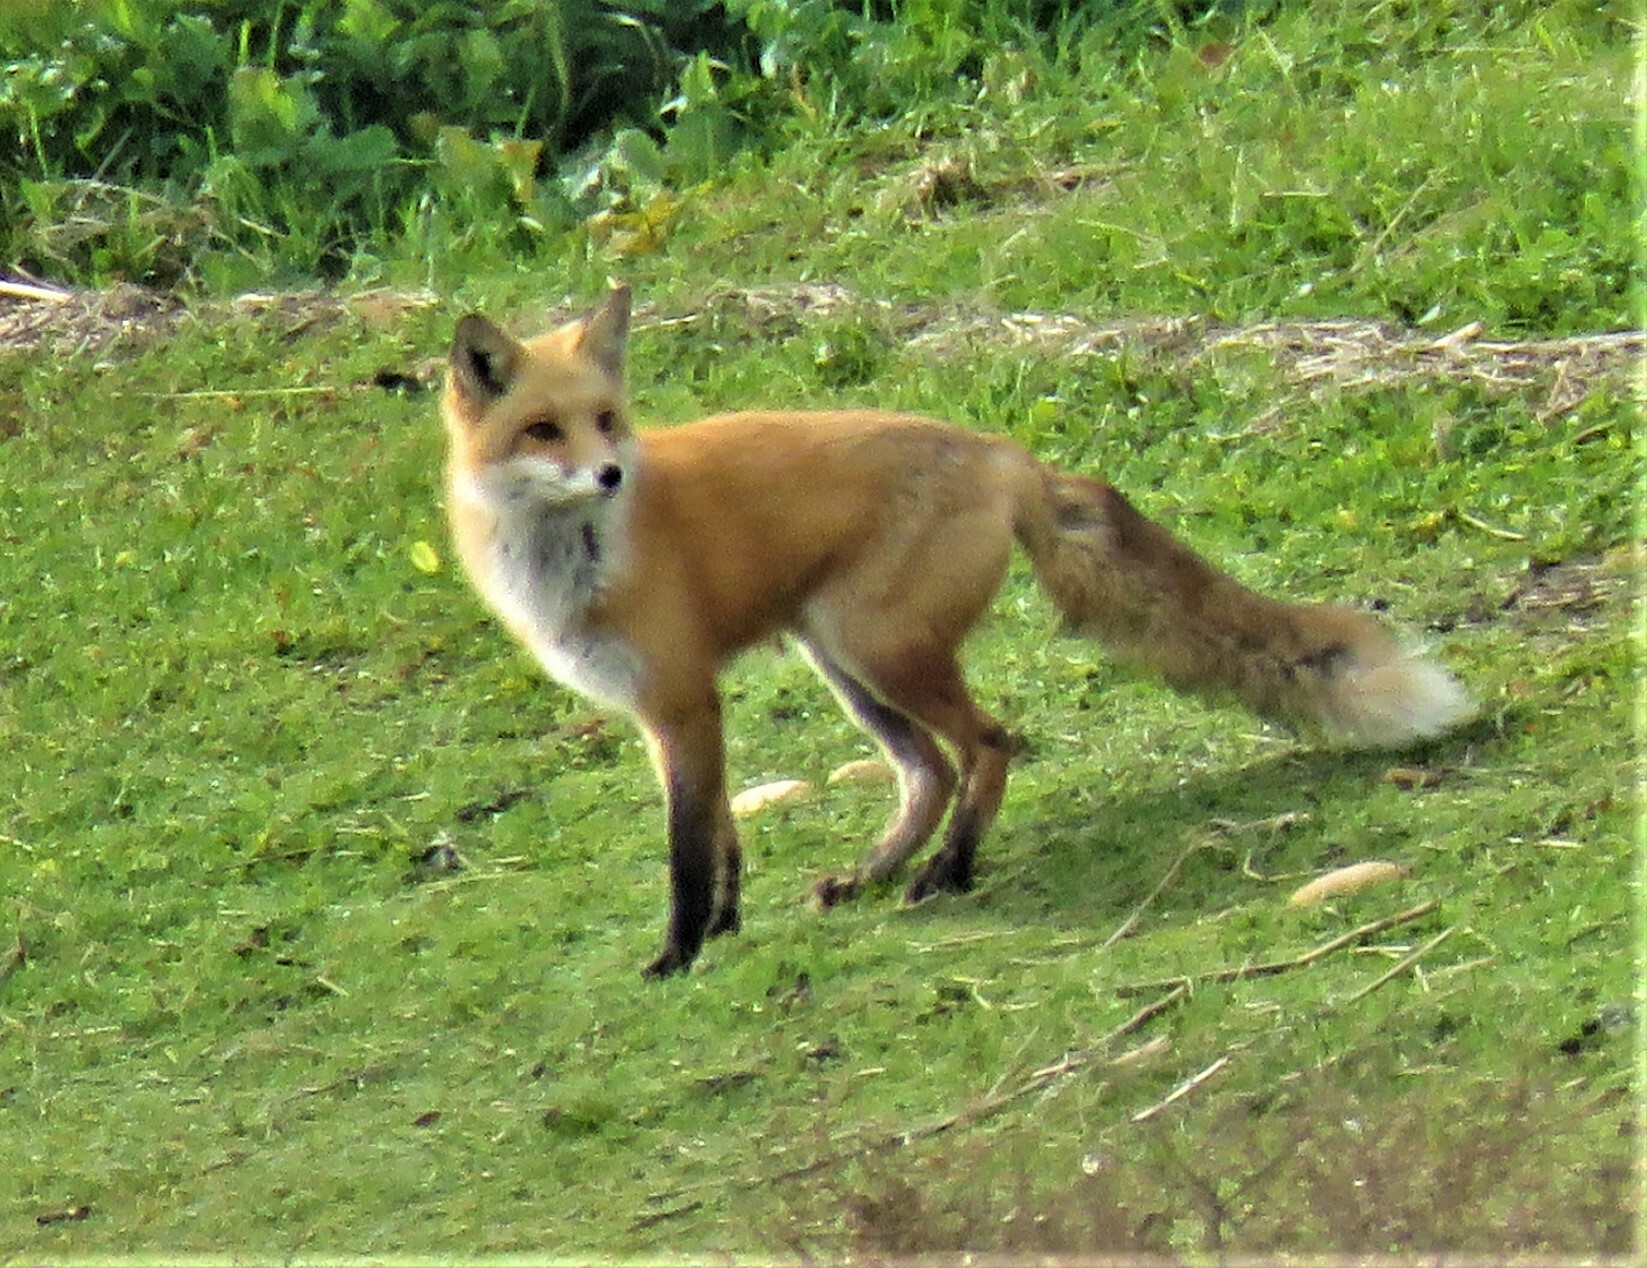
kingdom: Animalia
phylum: Chordata
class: Mammalia
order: Carnivora
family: Canidae
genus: Vulpes
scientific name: Vulpes vulpes
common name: Red fox
